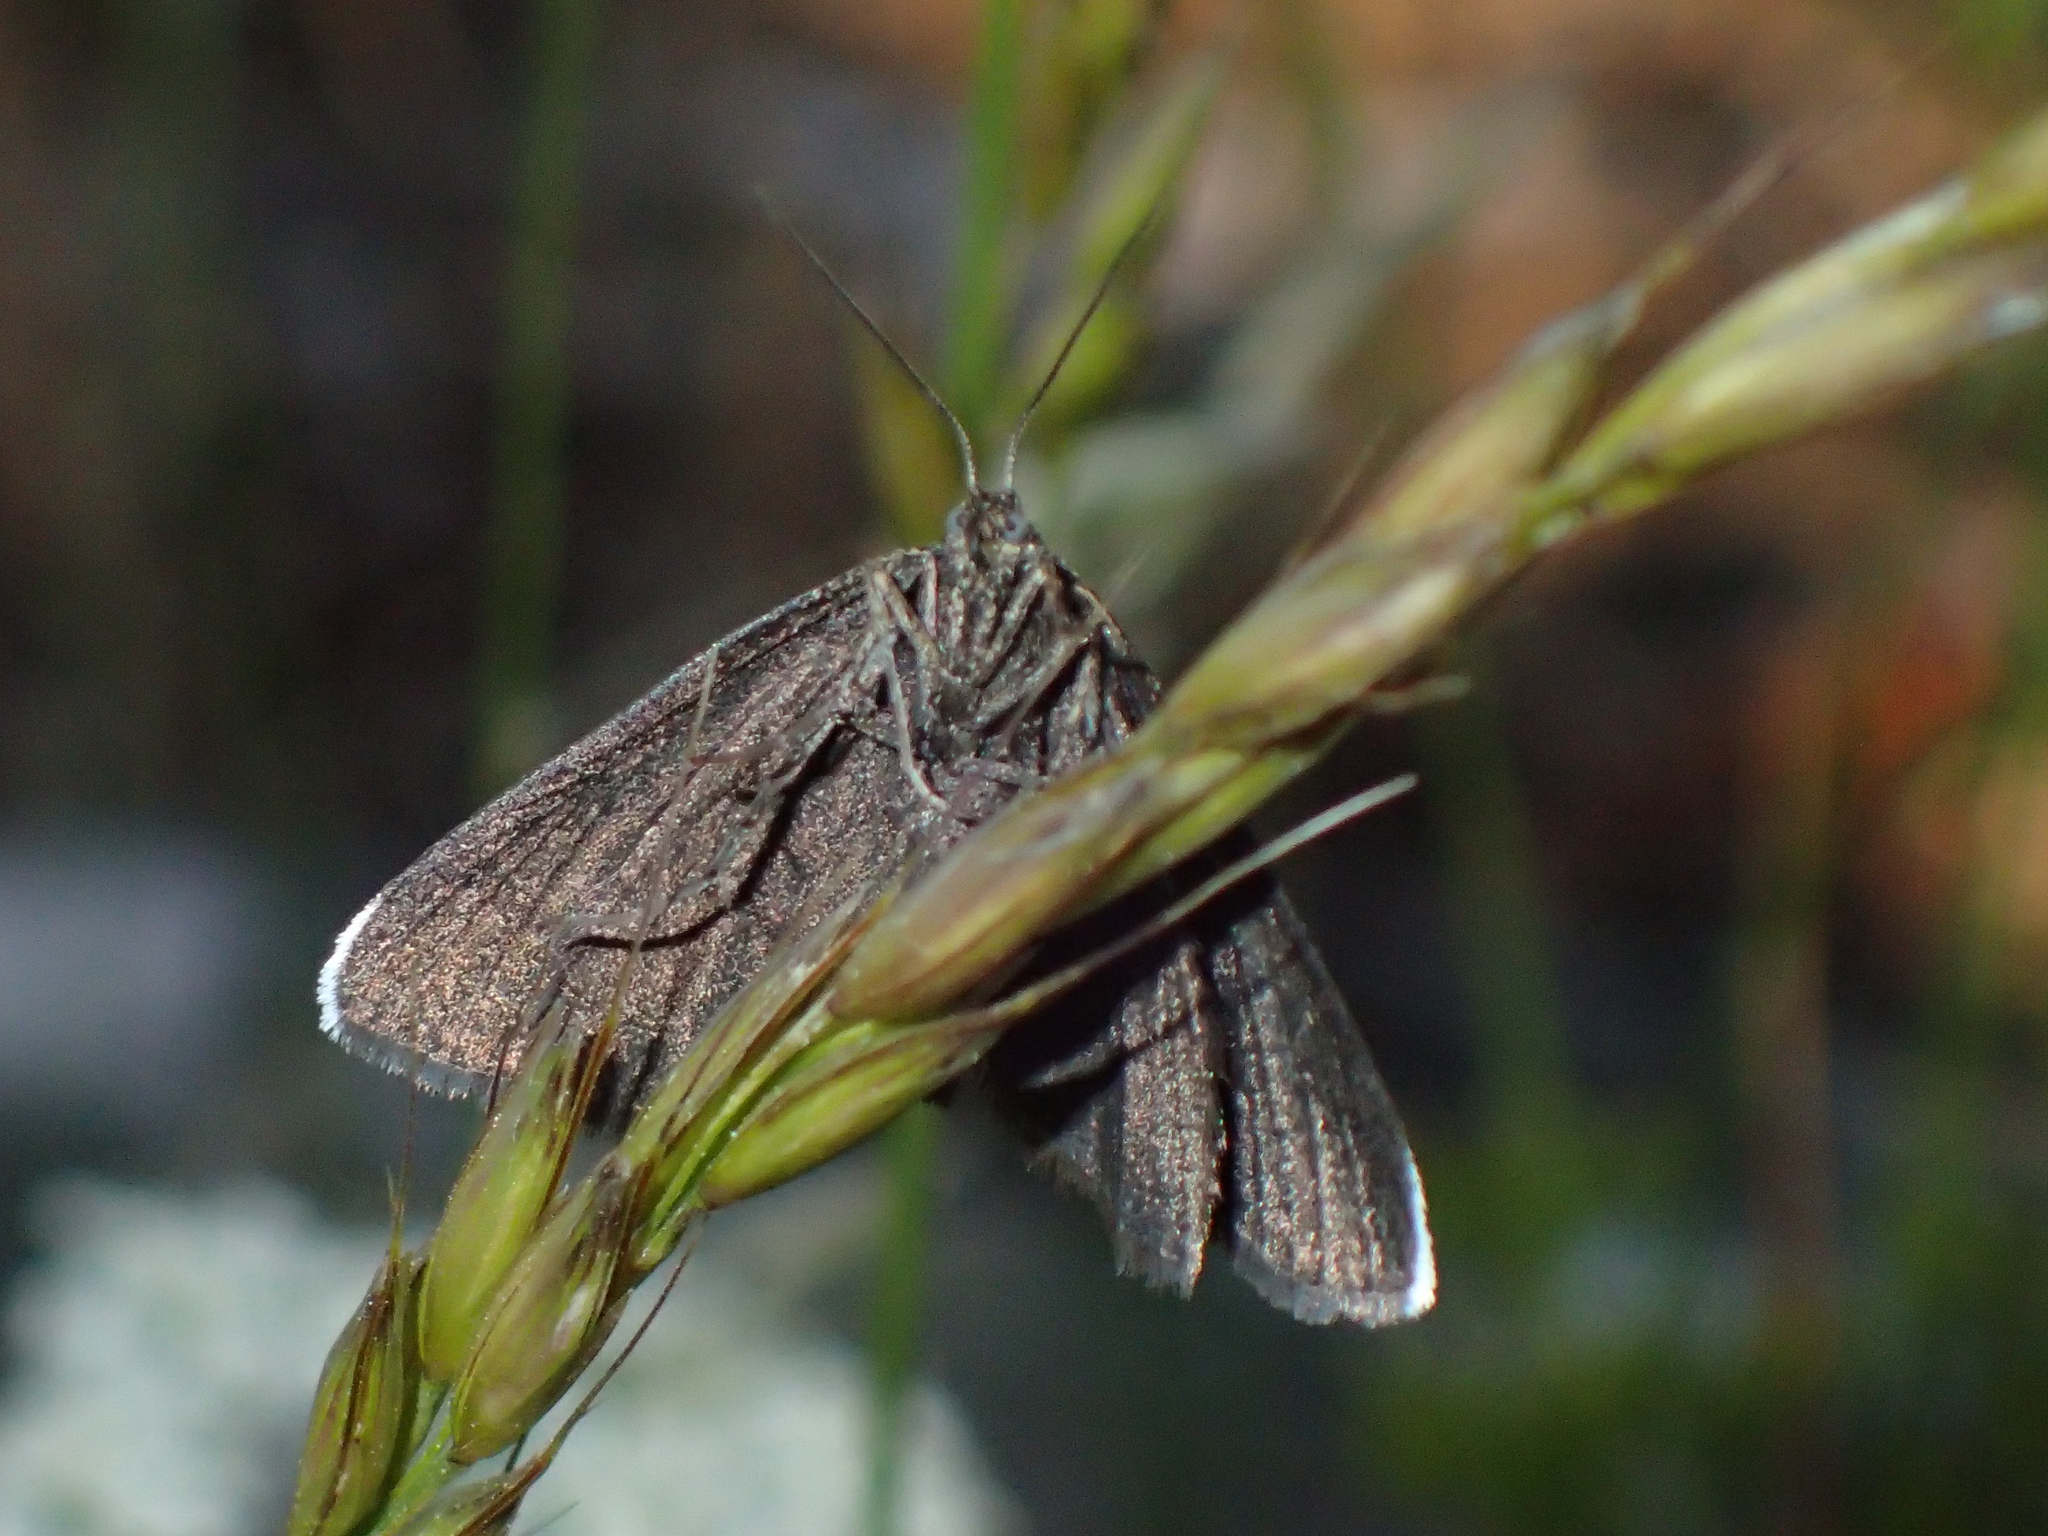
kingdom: Animalia
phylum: Arthropoda
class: Insecta
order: Lepidoptera
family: Geometridae
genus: Odezia
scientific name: Odezia atrata
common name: Chimney sweeper
